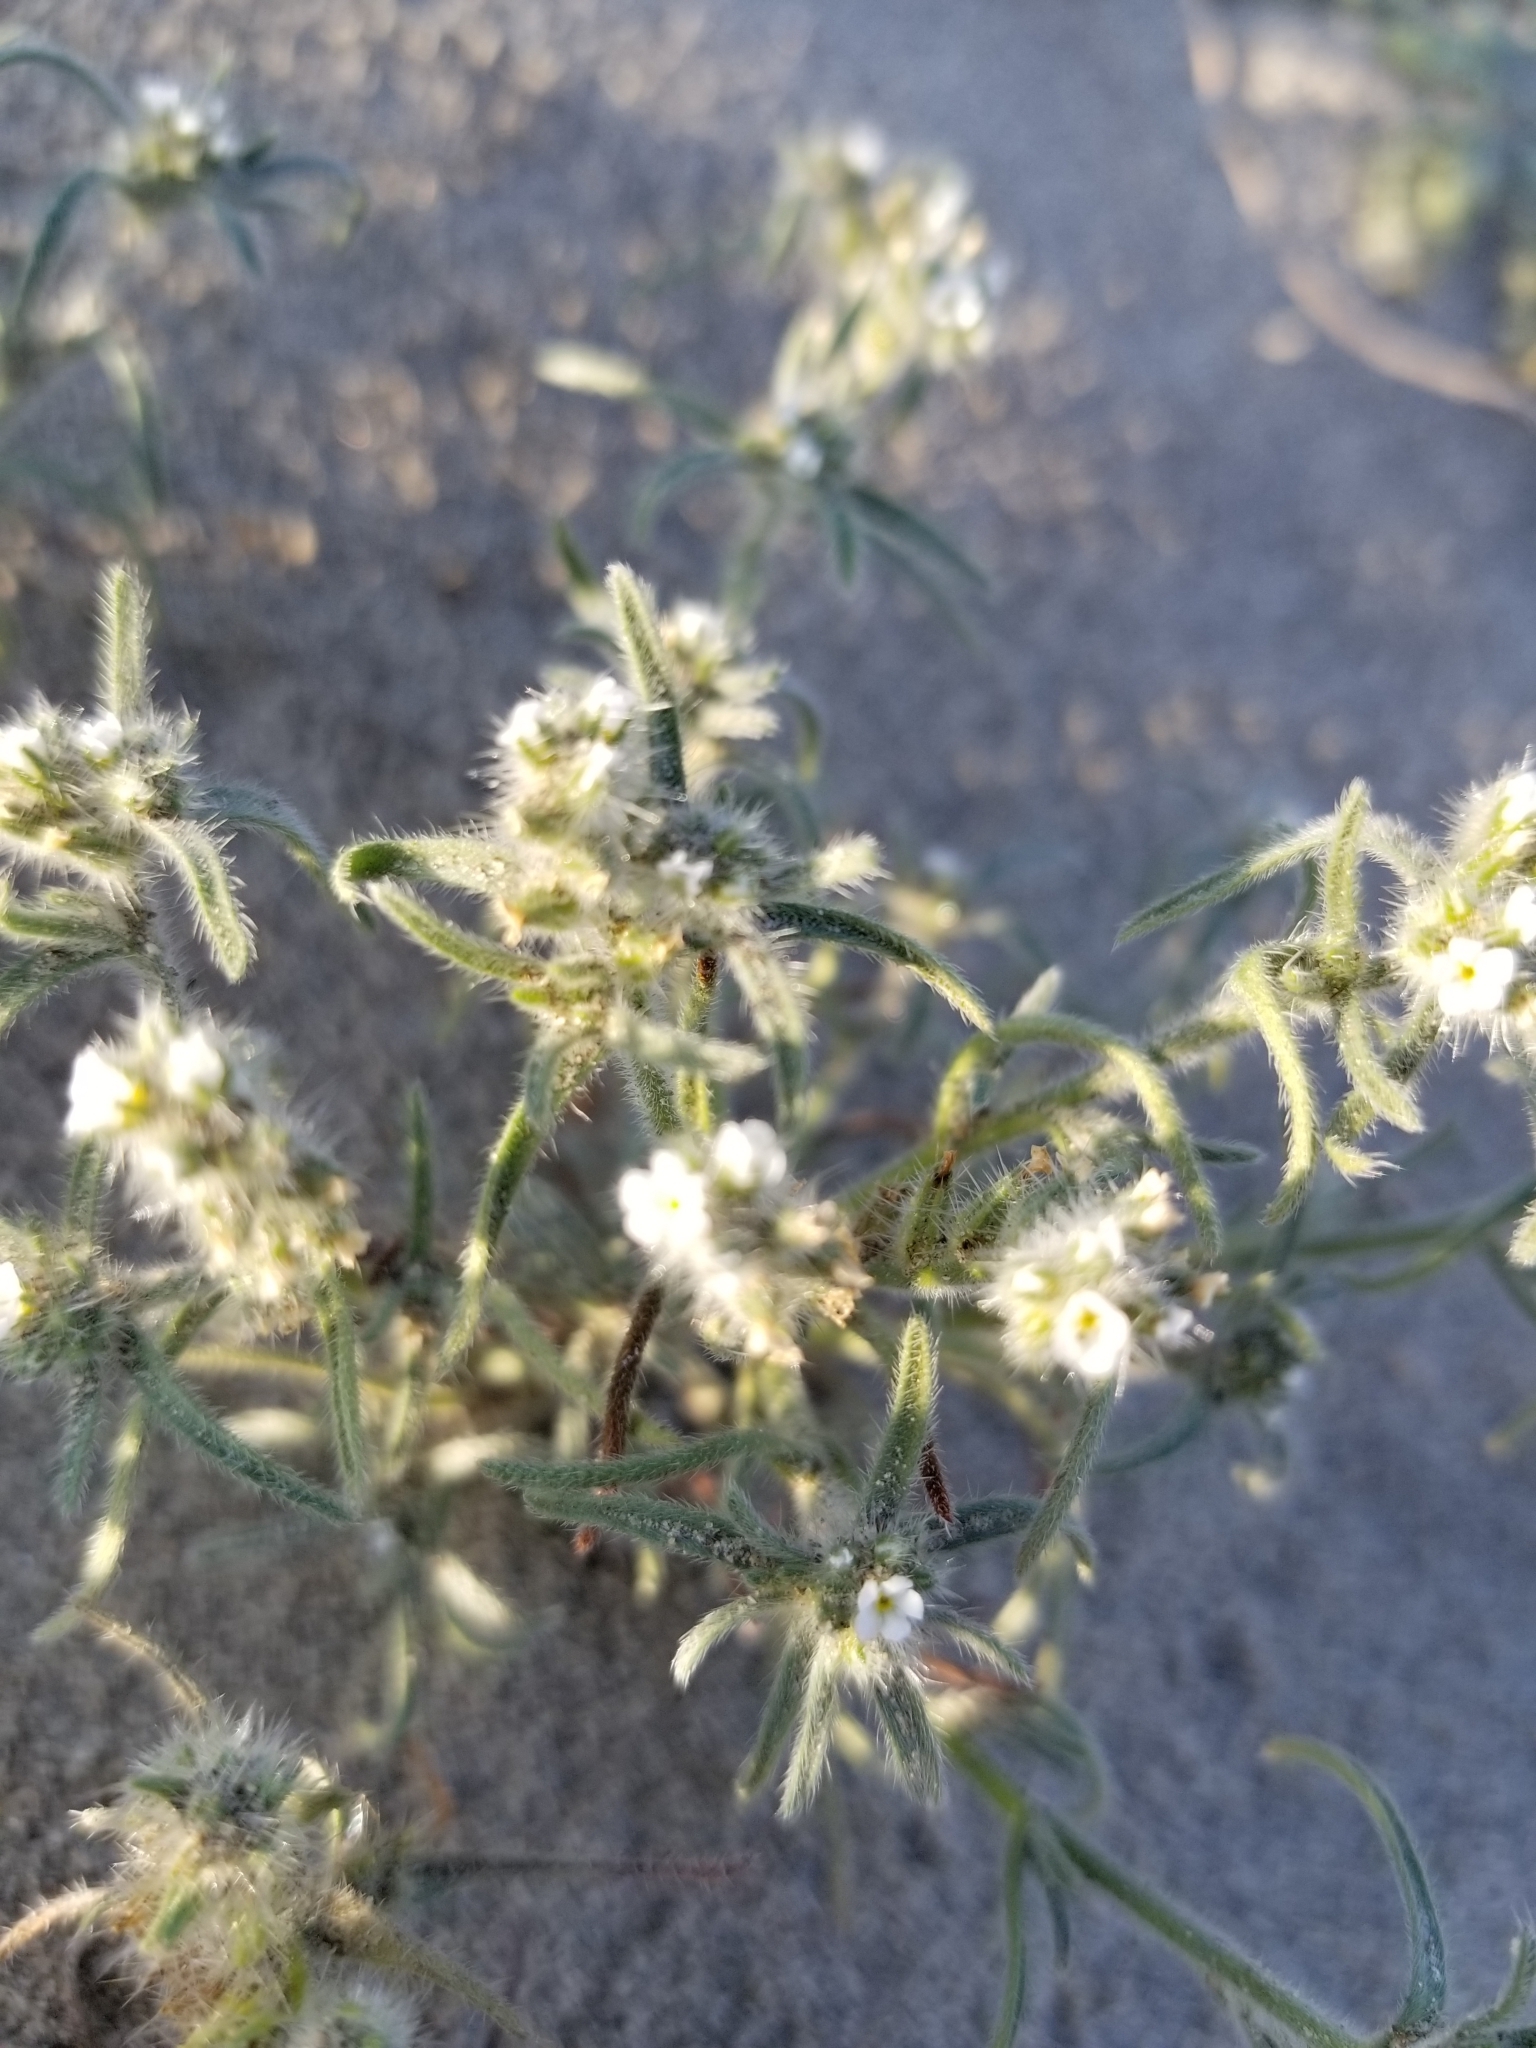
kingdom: Plantae
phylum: Tracheophyta
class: Magnoliopsida
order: Boraginales
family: Boraginaceae
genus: Johnstonella
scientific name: Johnstonella angustifolia
